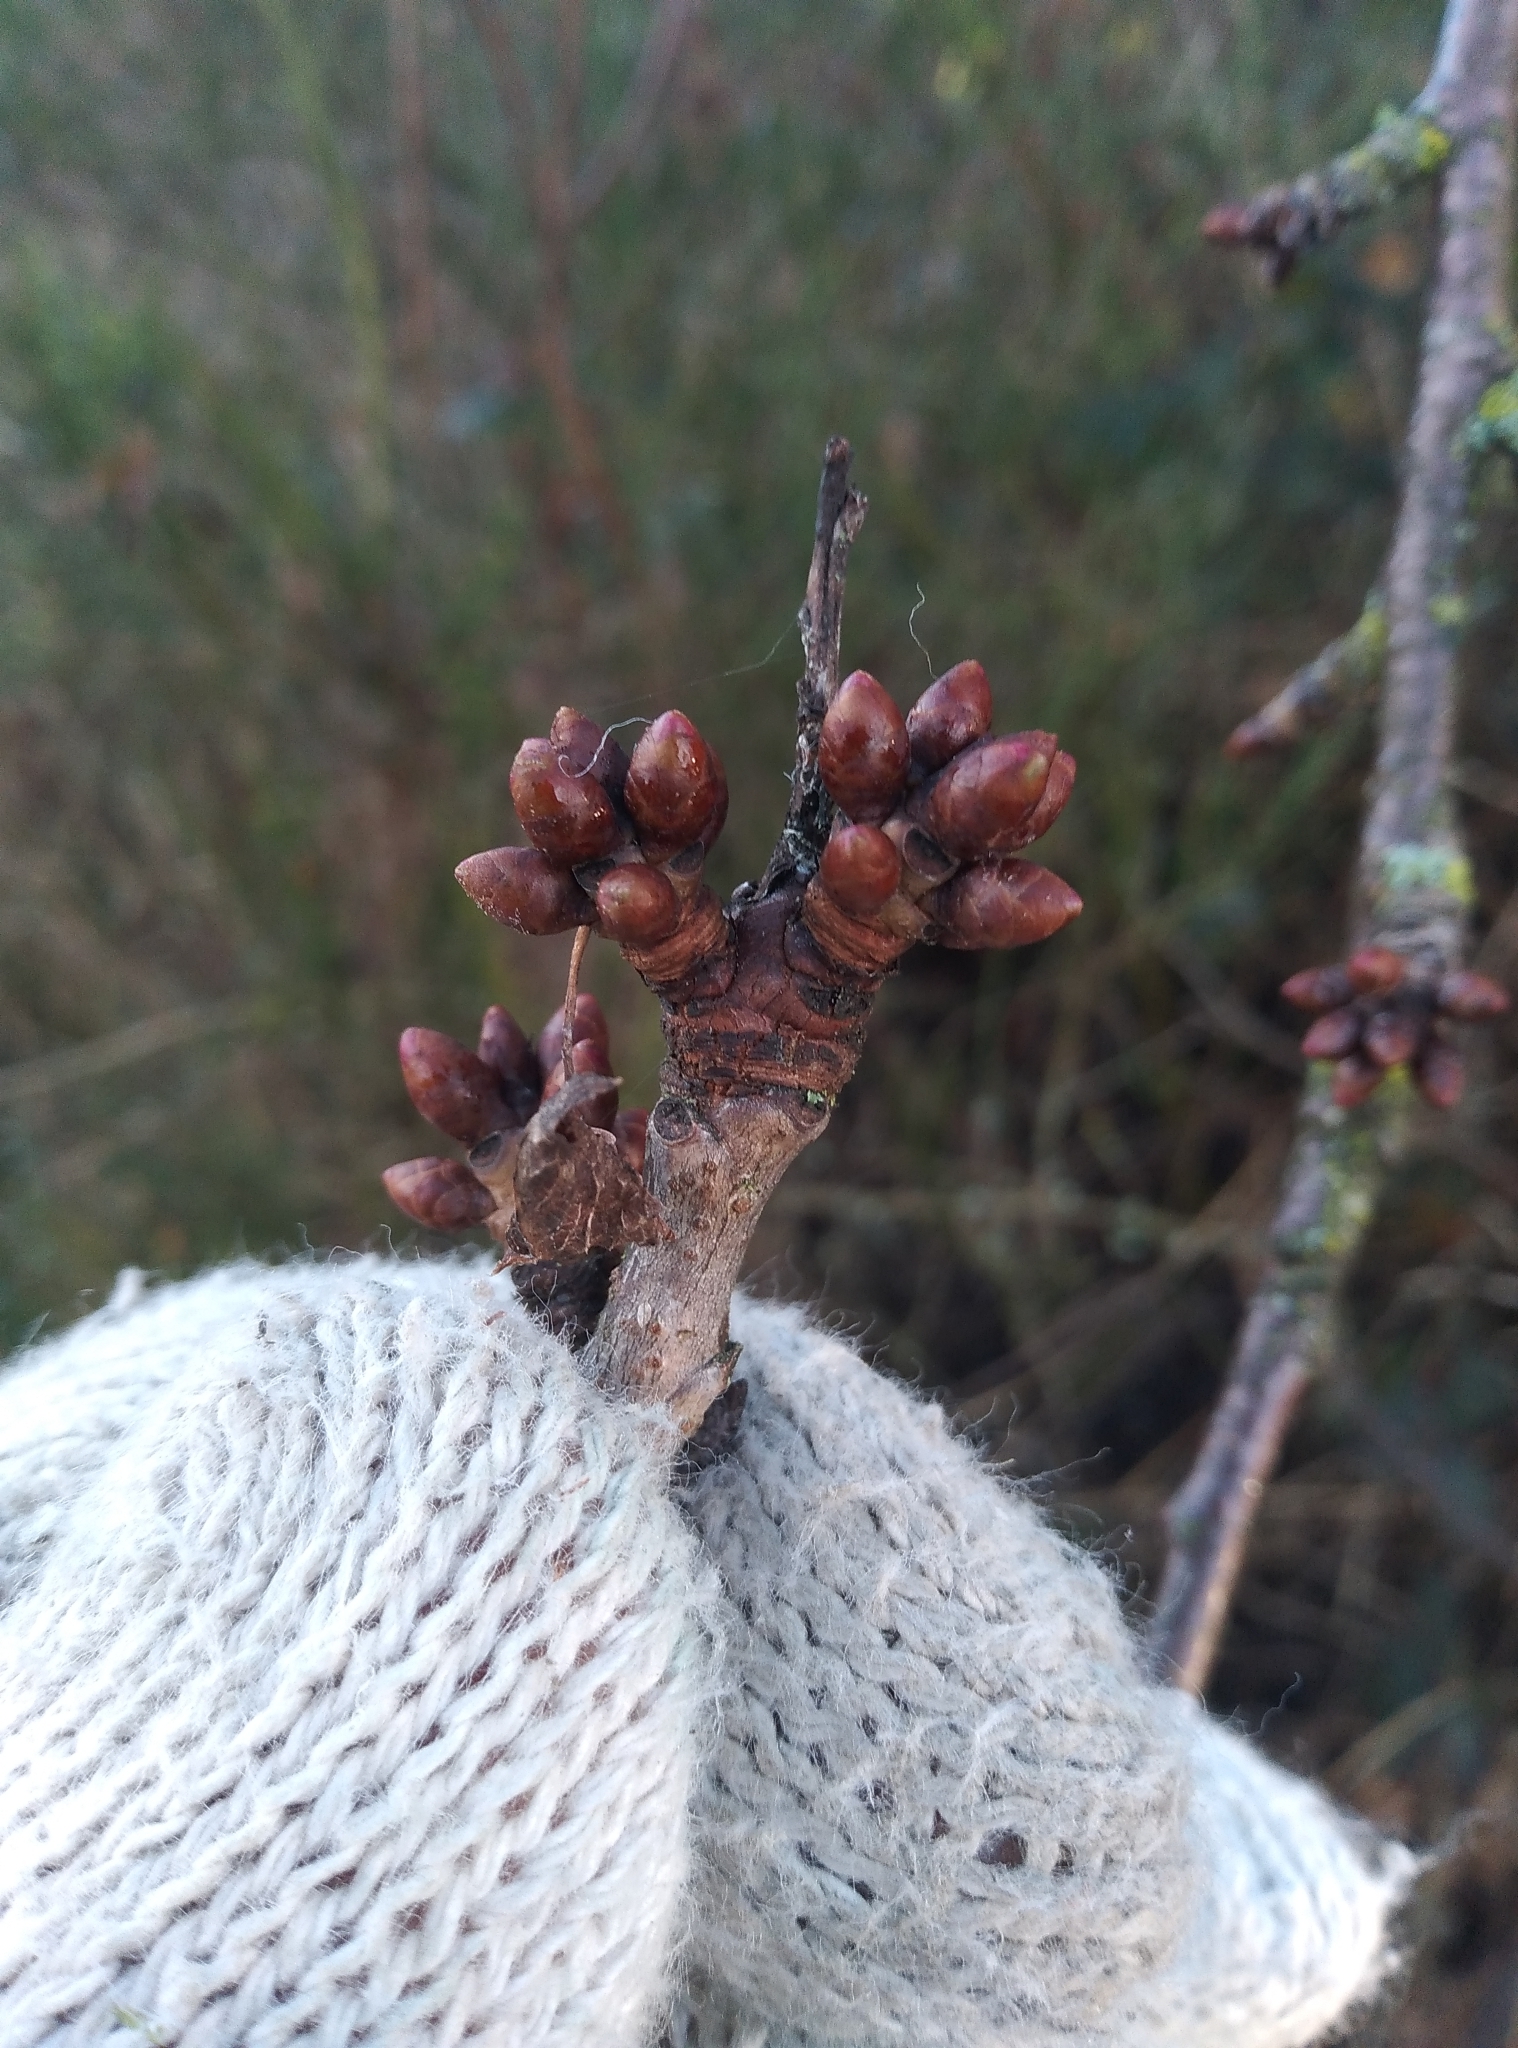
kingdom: Plantae
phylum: Tracheophyta
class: Magnoliopsida
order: Rosales
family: Rosaceae
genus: Prunus
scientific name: Prunus avium
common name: Sweet cherry
